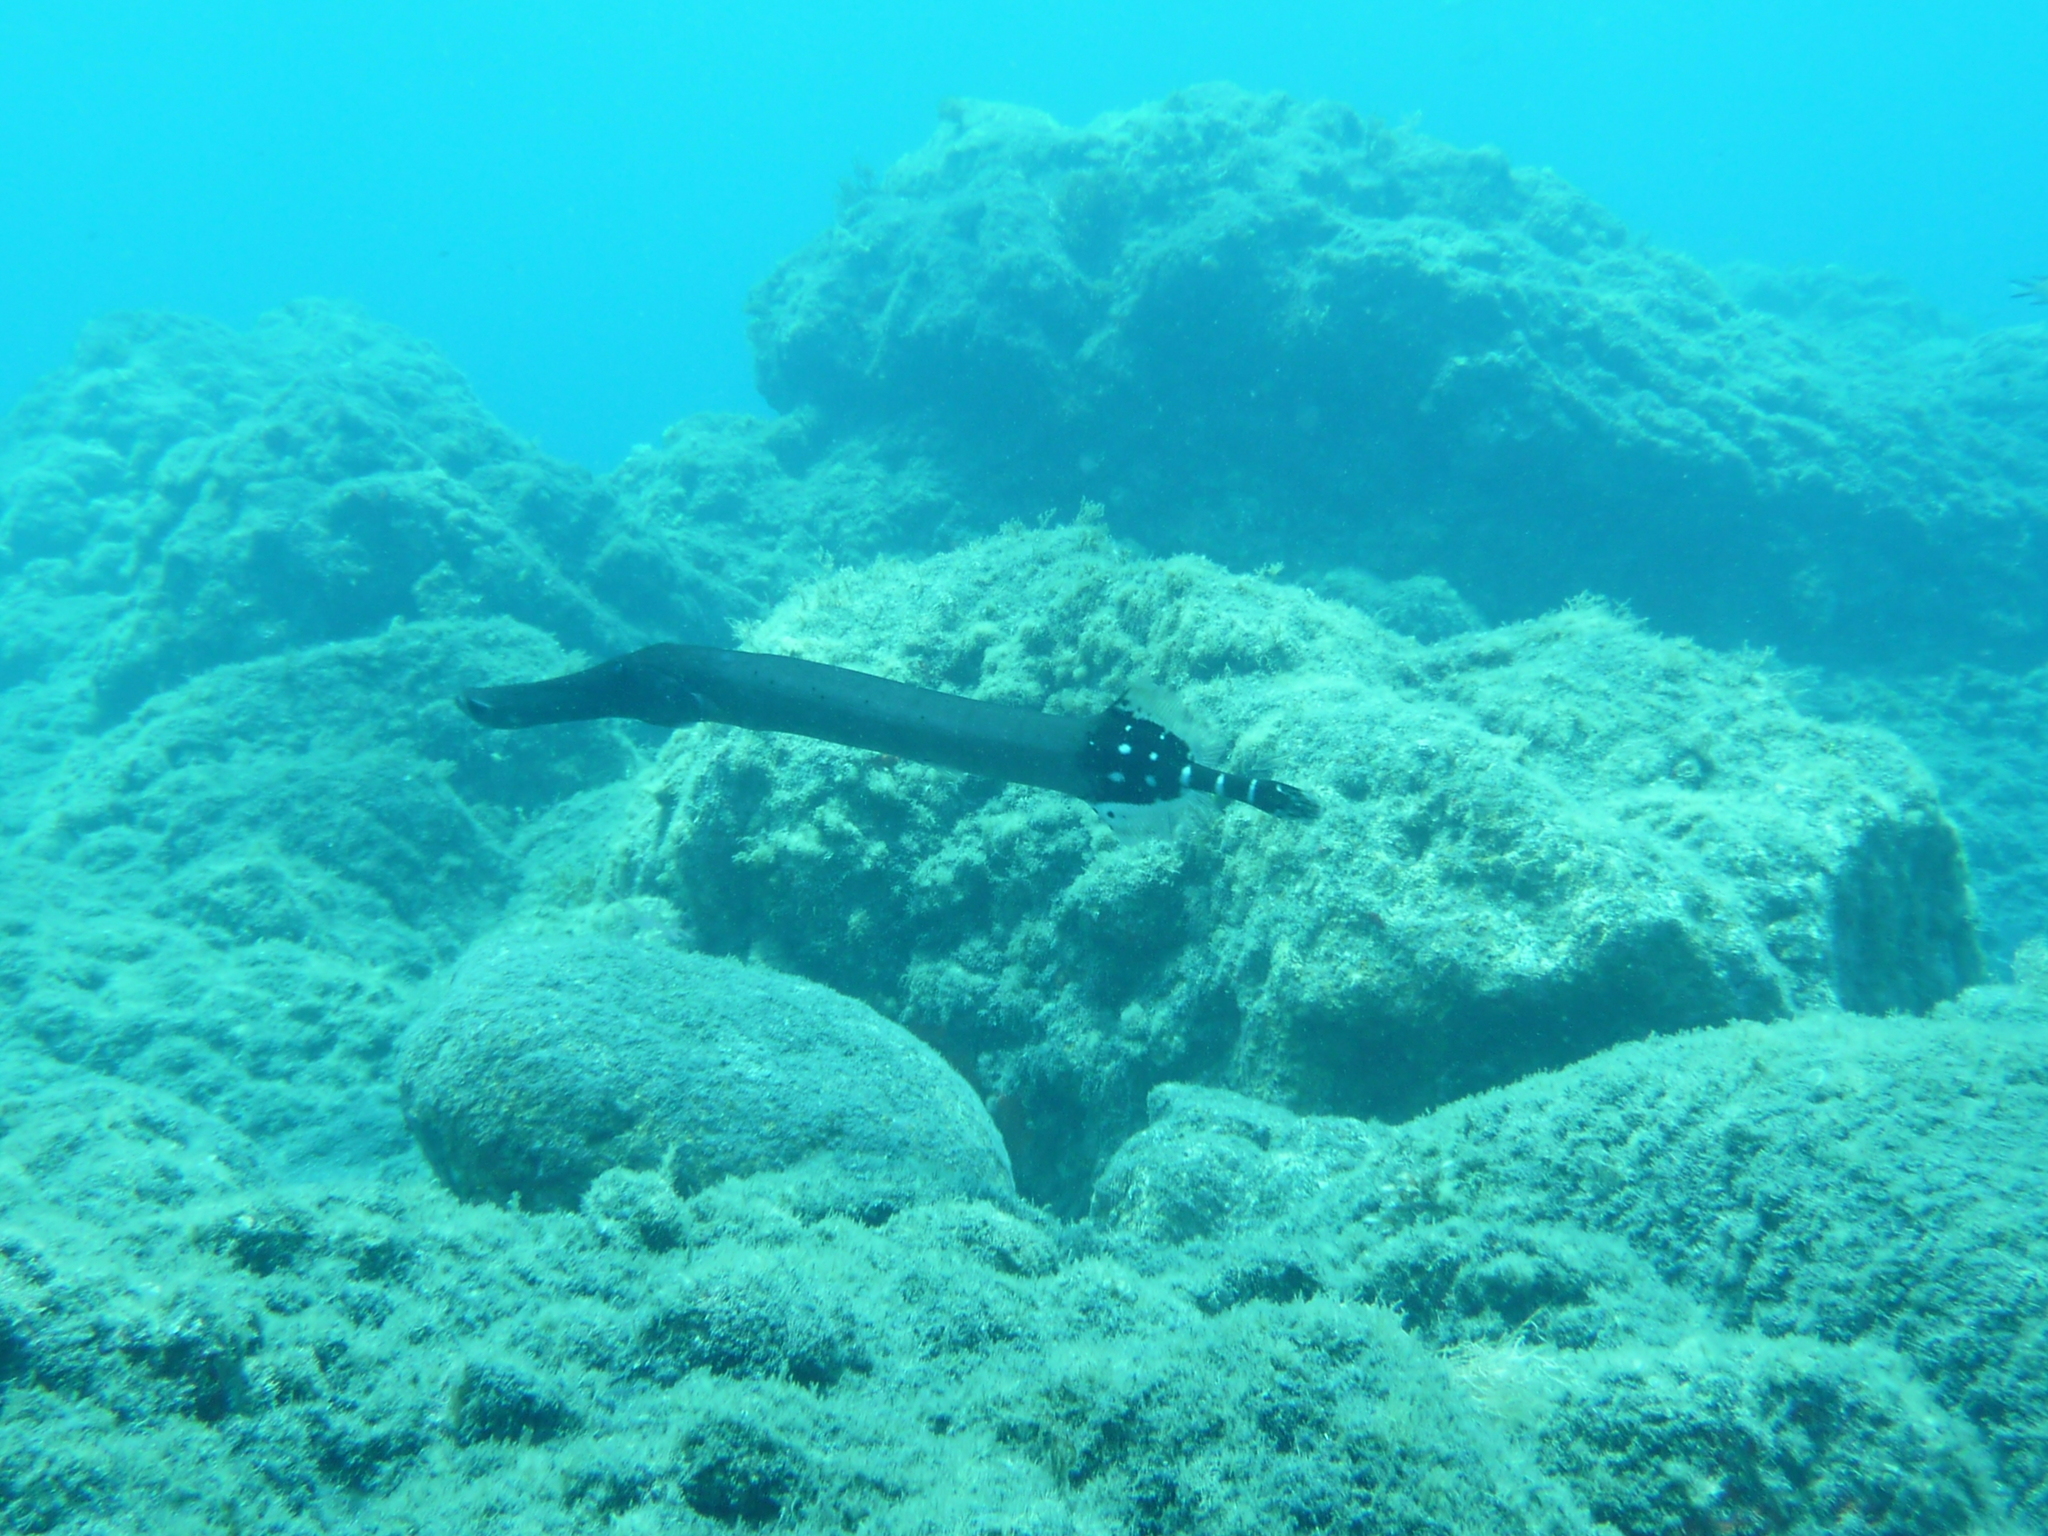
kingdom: Animalia
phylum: Chordata
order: Syngnathiformes
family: Aulostomidae
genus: Aulostomus
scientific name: Aulostomus strigosus
